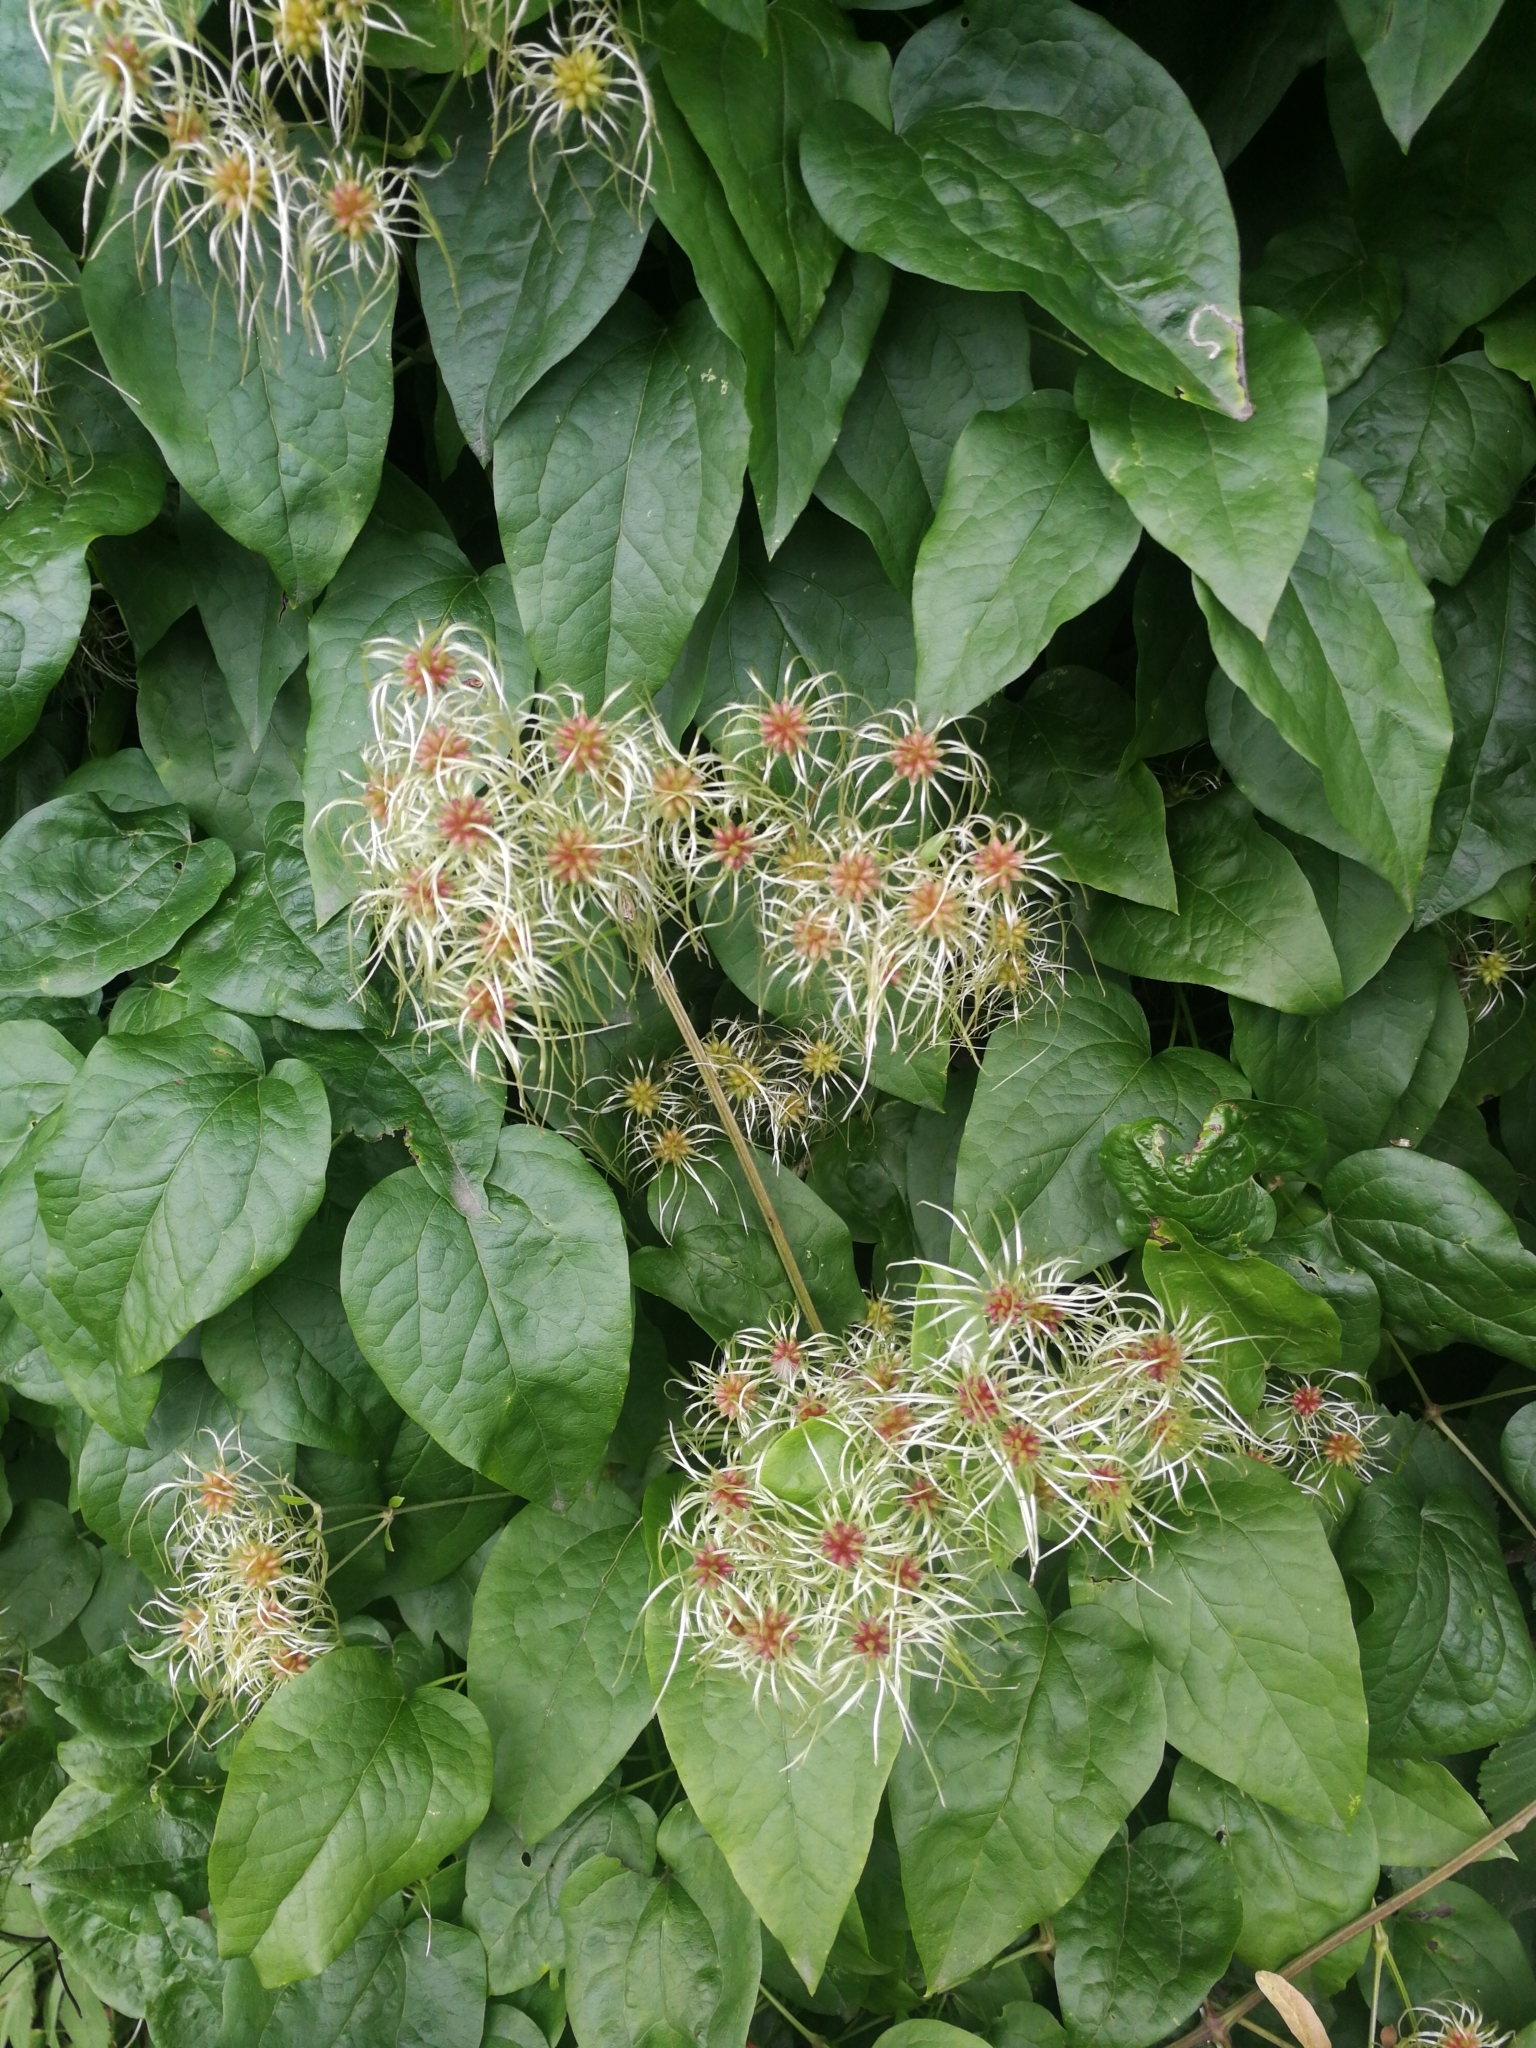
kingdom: Plantae
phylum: Tracheophyta
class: Magnoliopsida
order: Ranunculales
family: Ranunculaceae
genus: Clematis
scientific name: Clematis vitalba
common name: Evergreen clematis
